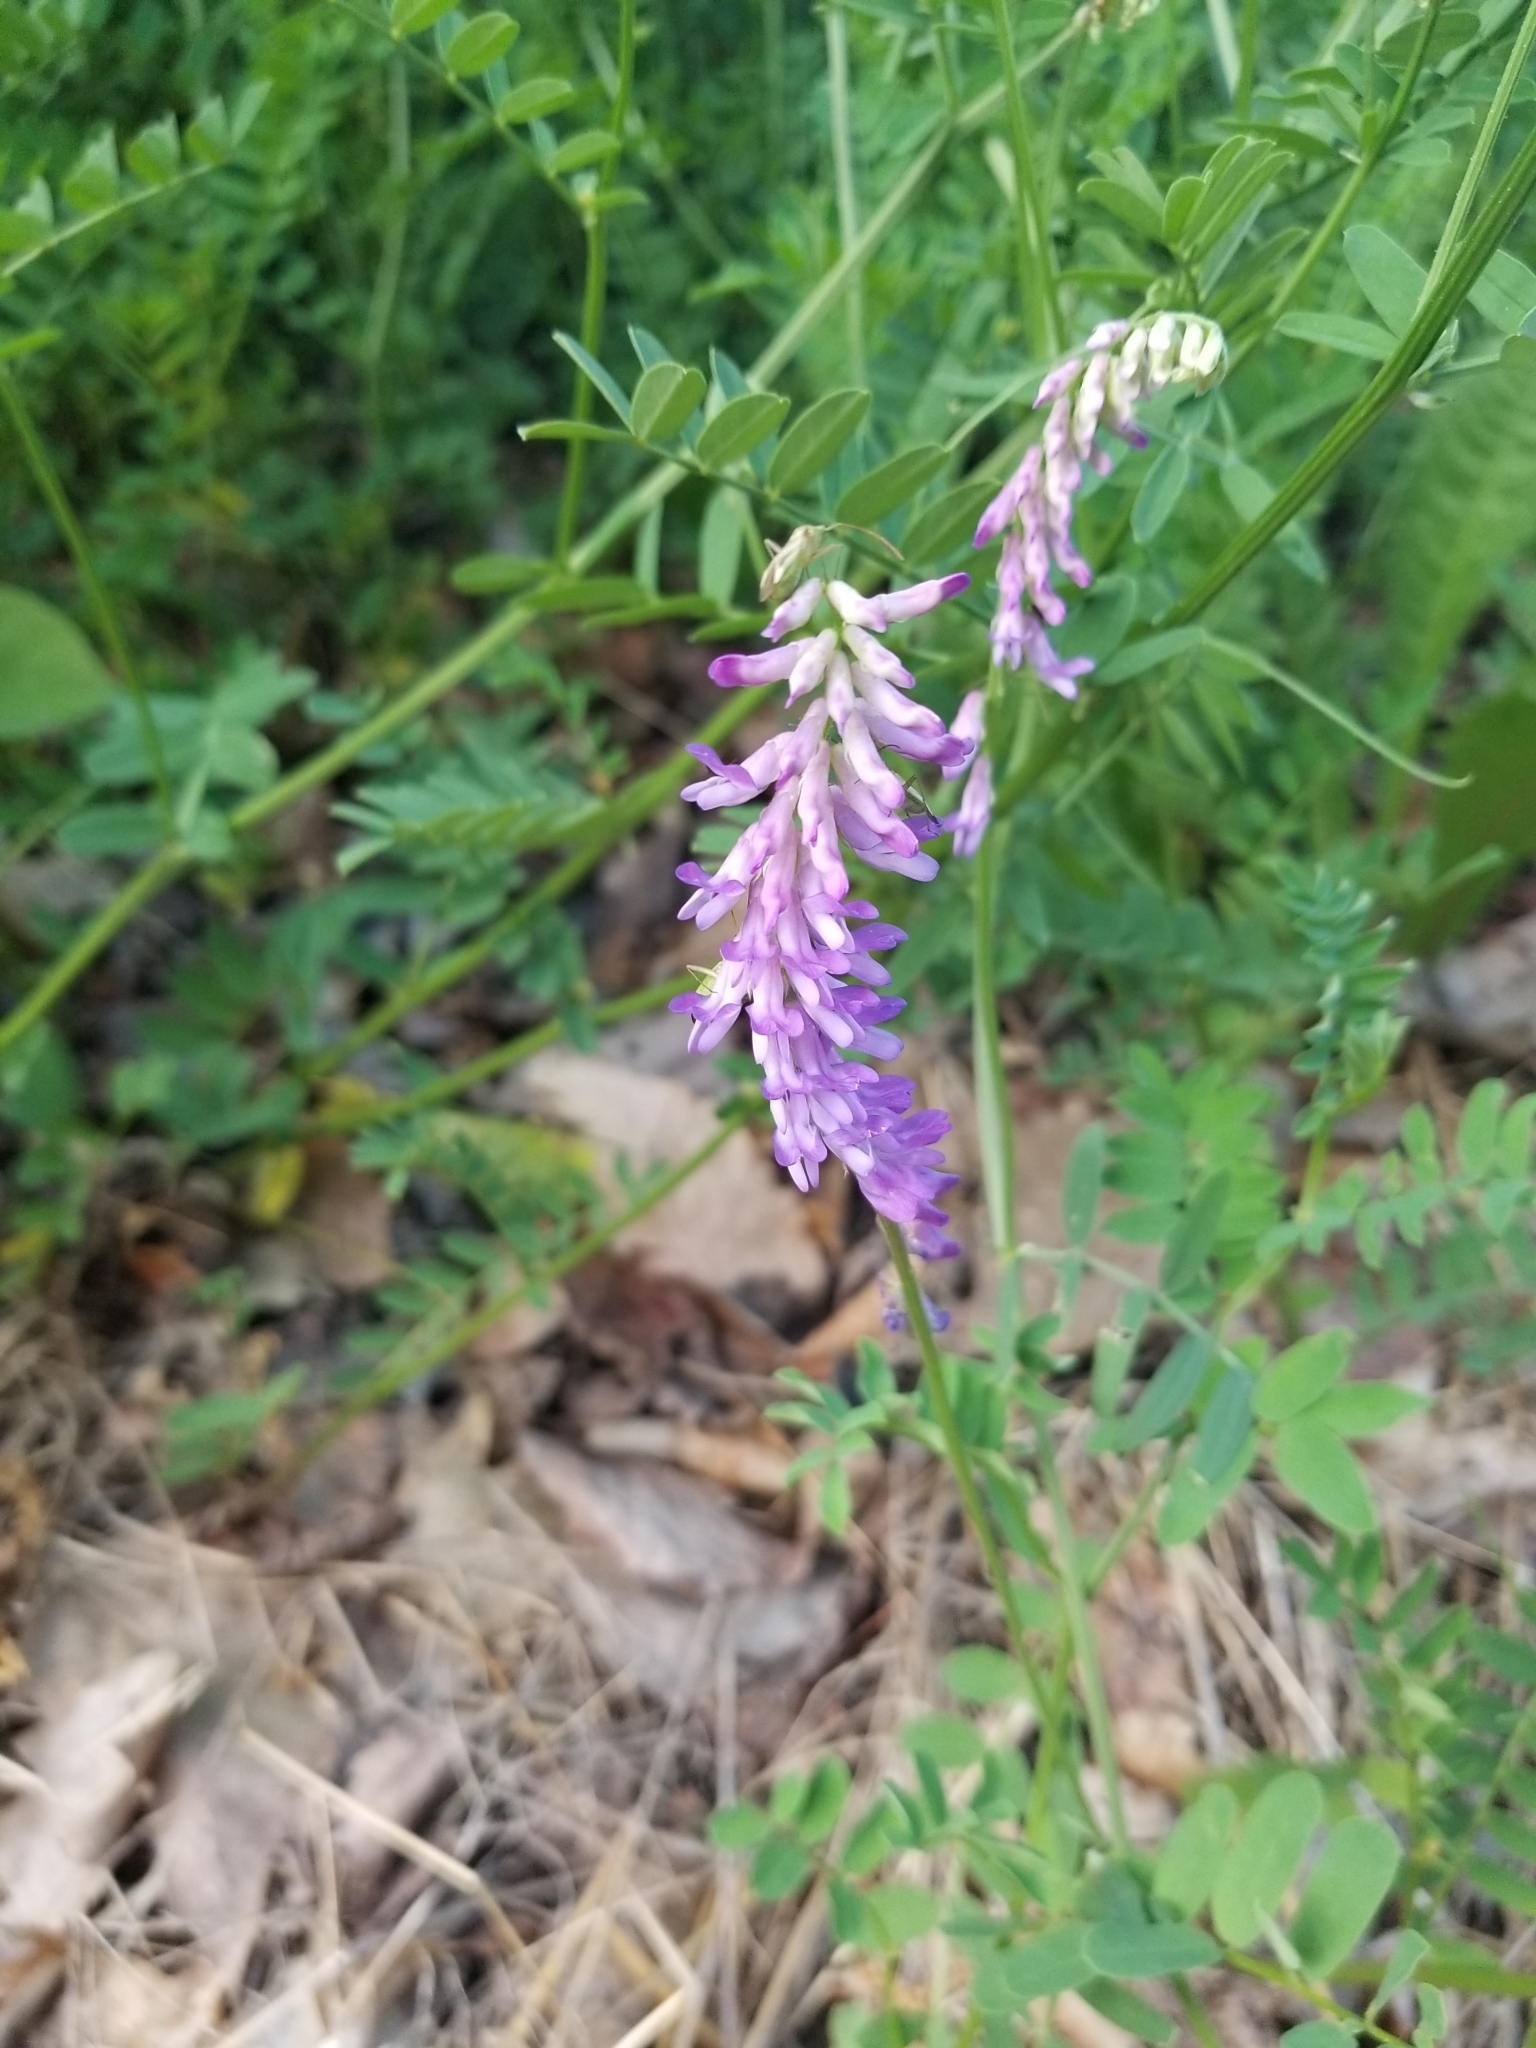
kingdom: Plantae
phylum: Tracheophyta
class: Magnoliopsida
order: Fabales
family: Fabaceae
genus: Vicia
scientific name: Vicia cracca
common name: Bird vetch
